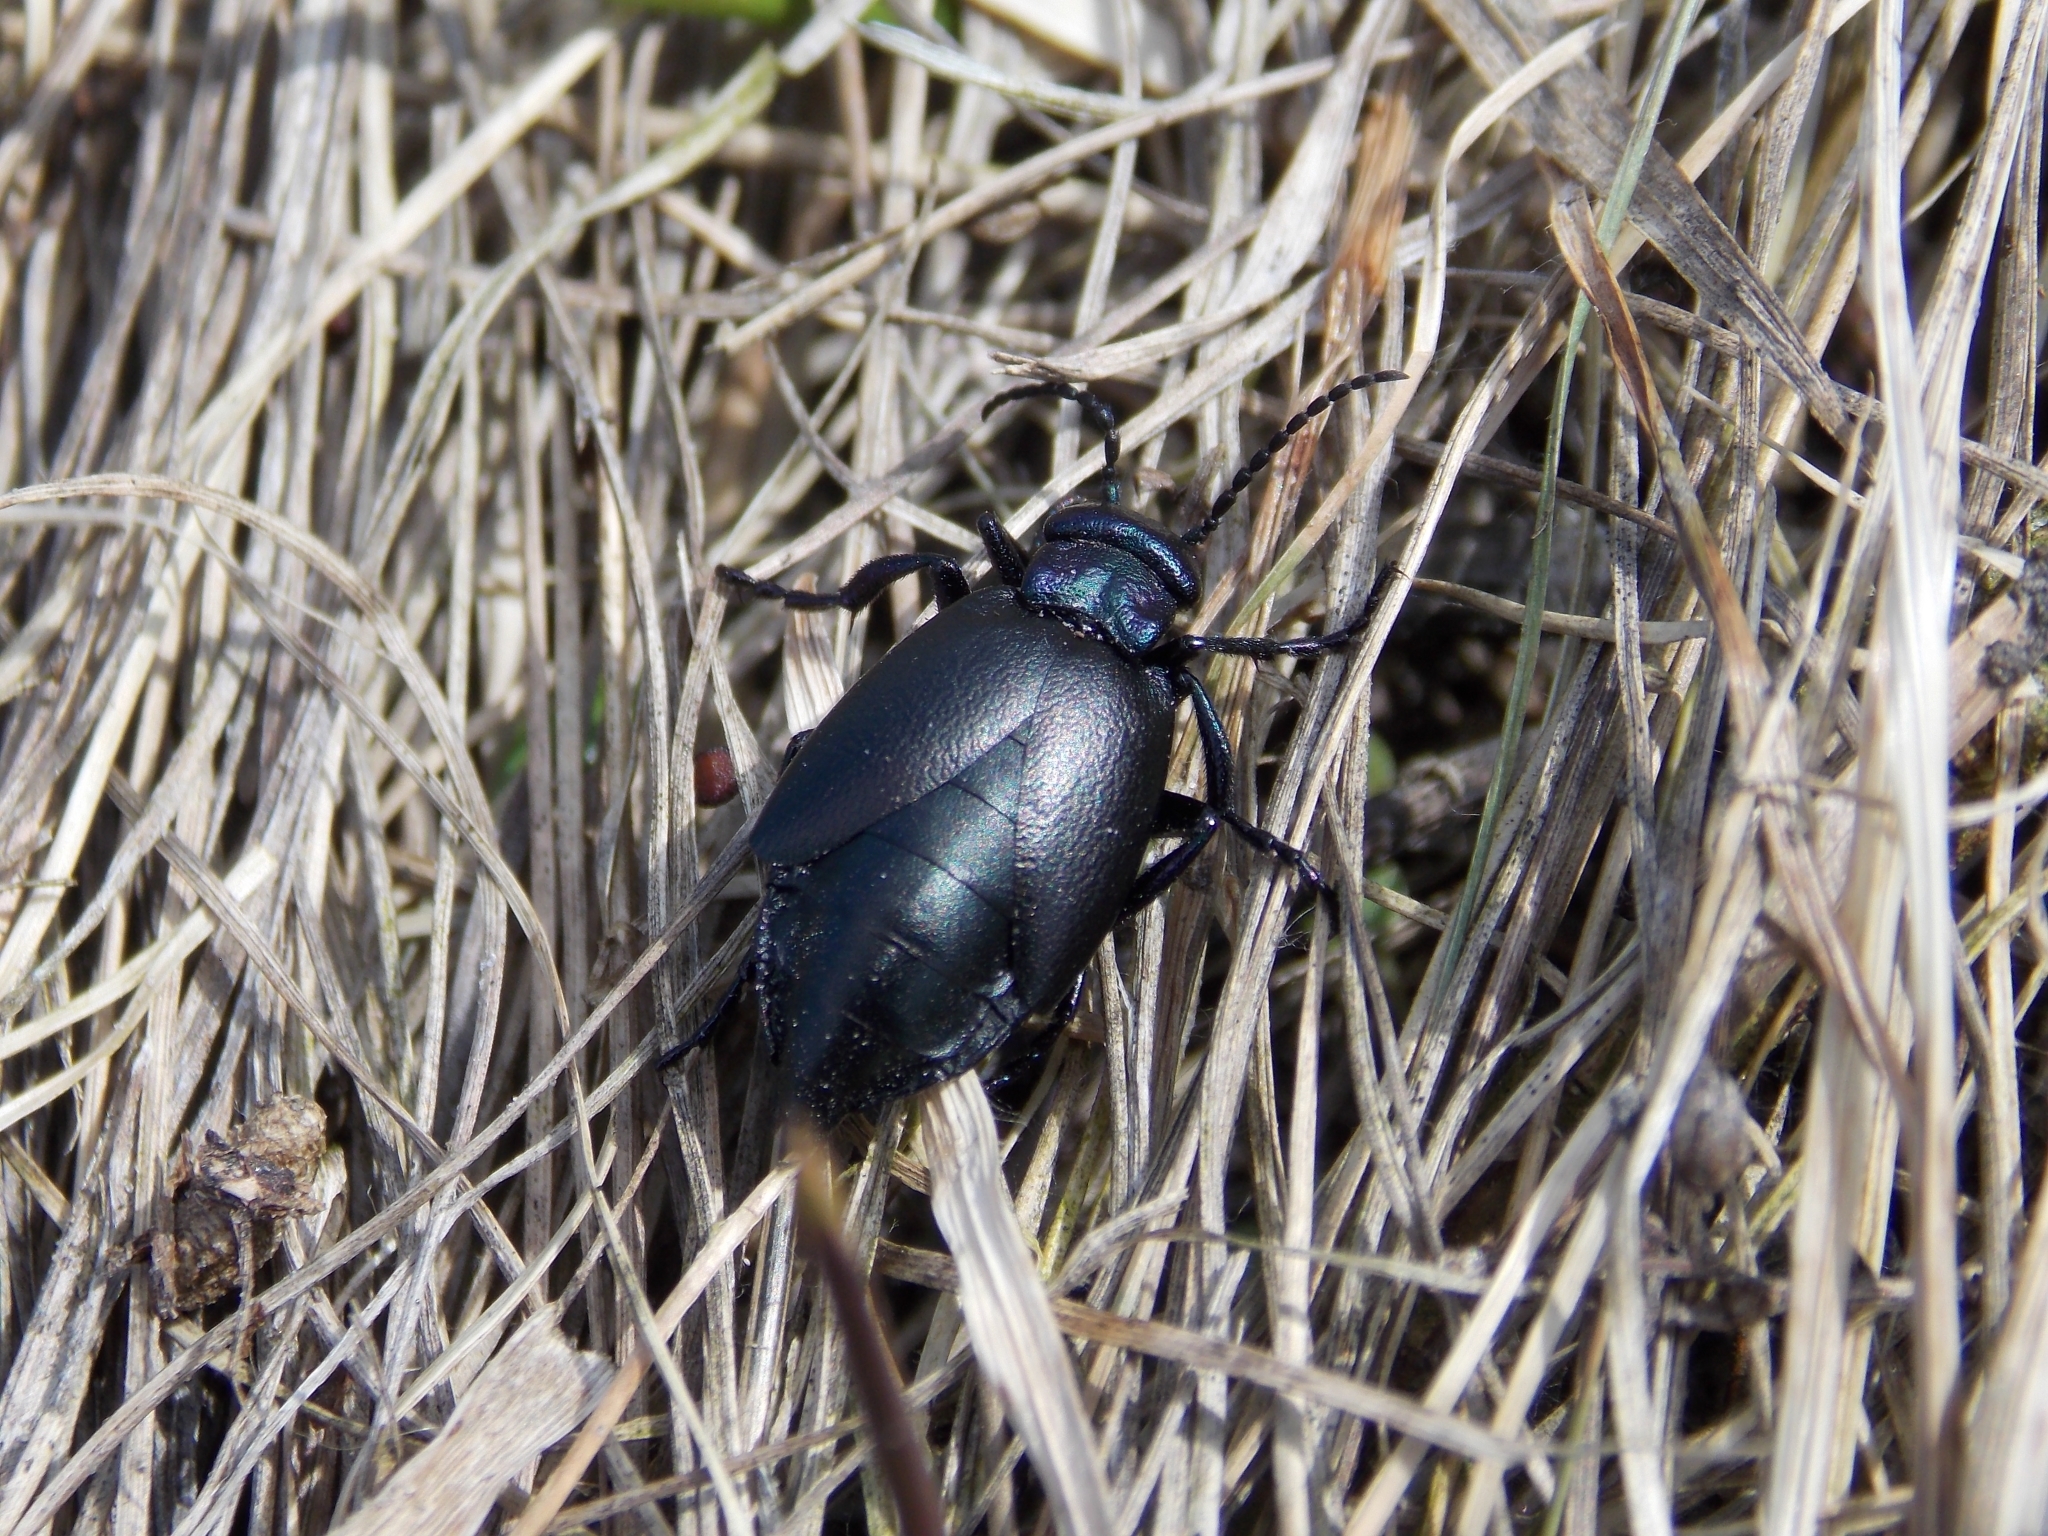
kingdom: Animalia
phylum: Arthropoda
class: Insecta
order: Coleoptera
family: Meloidae
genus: Meloe
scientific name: Meloe decorus
